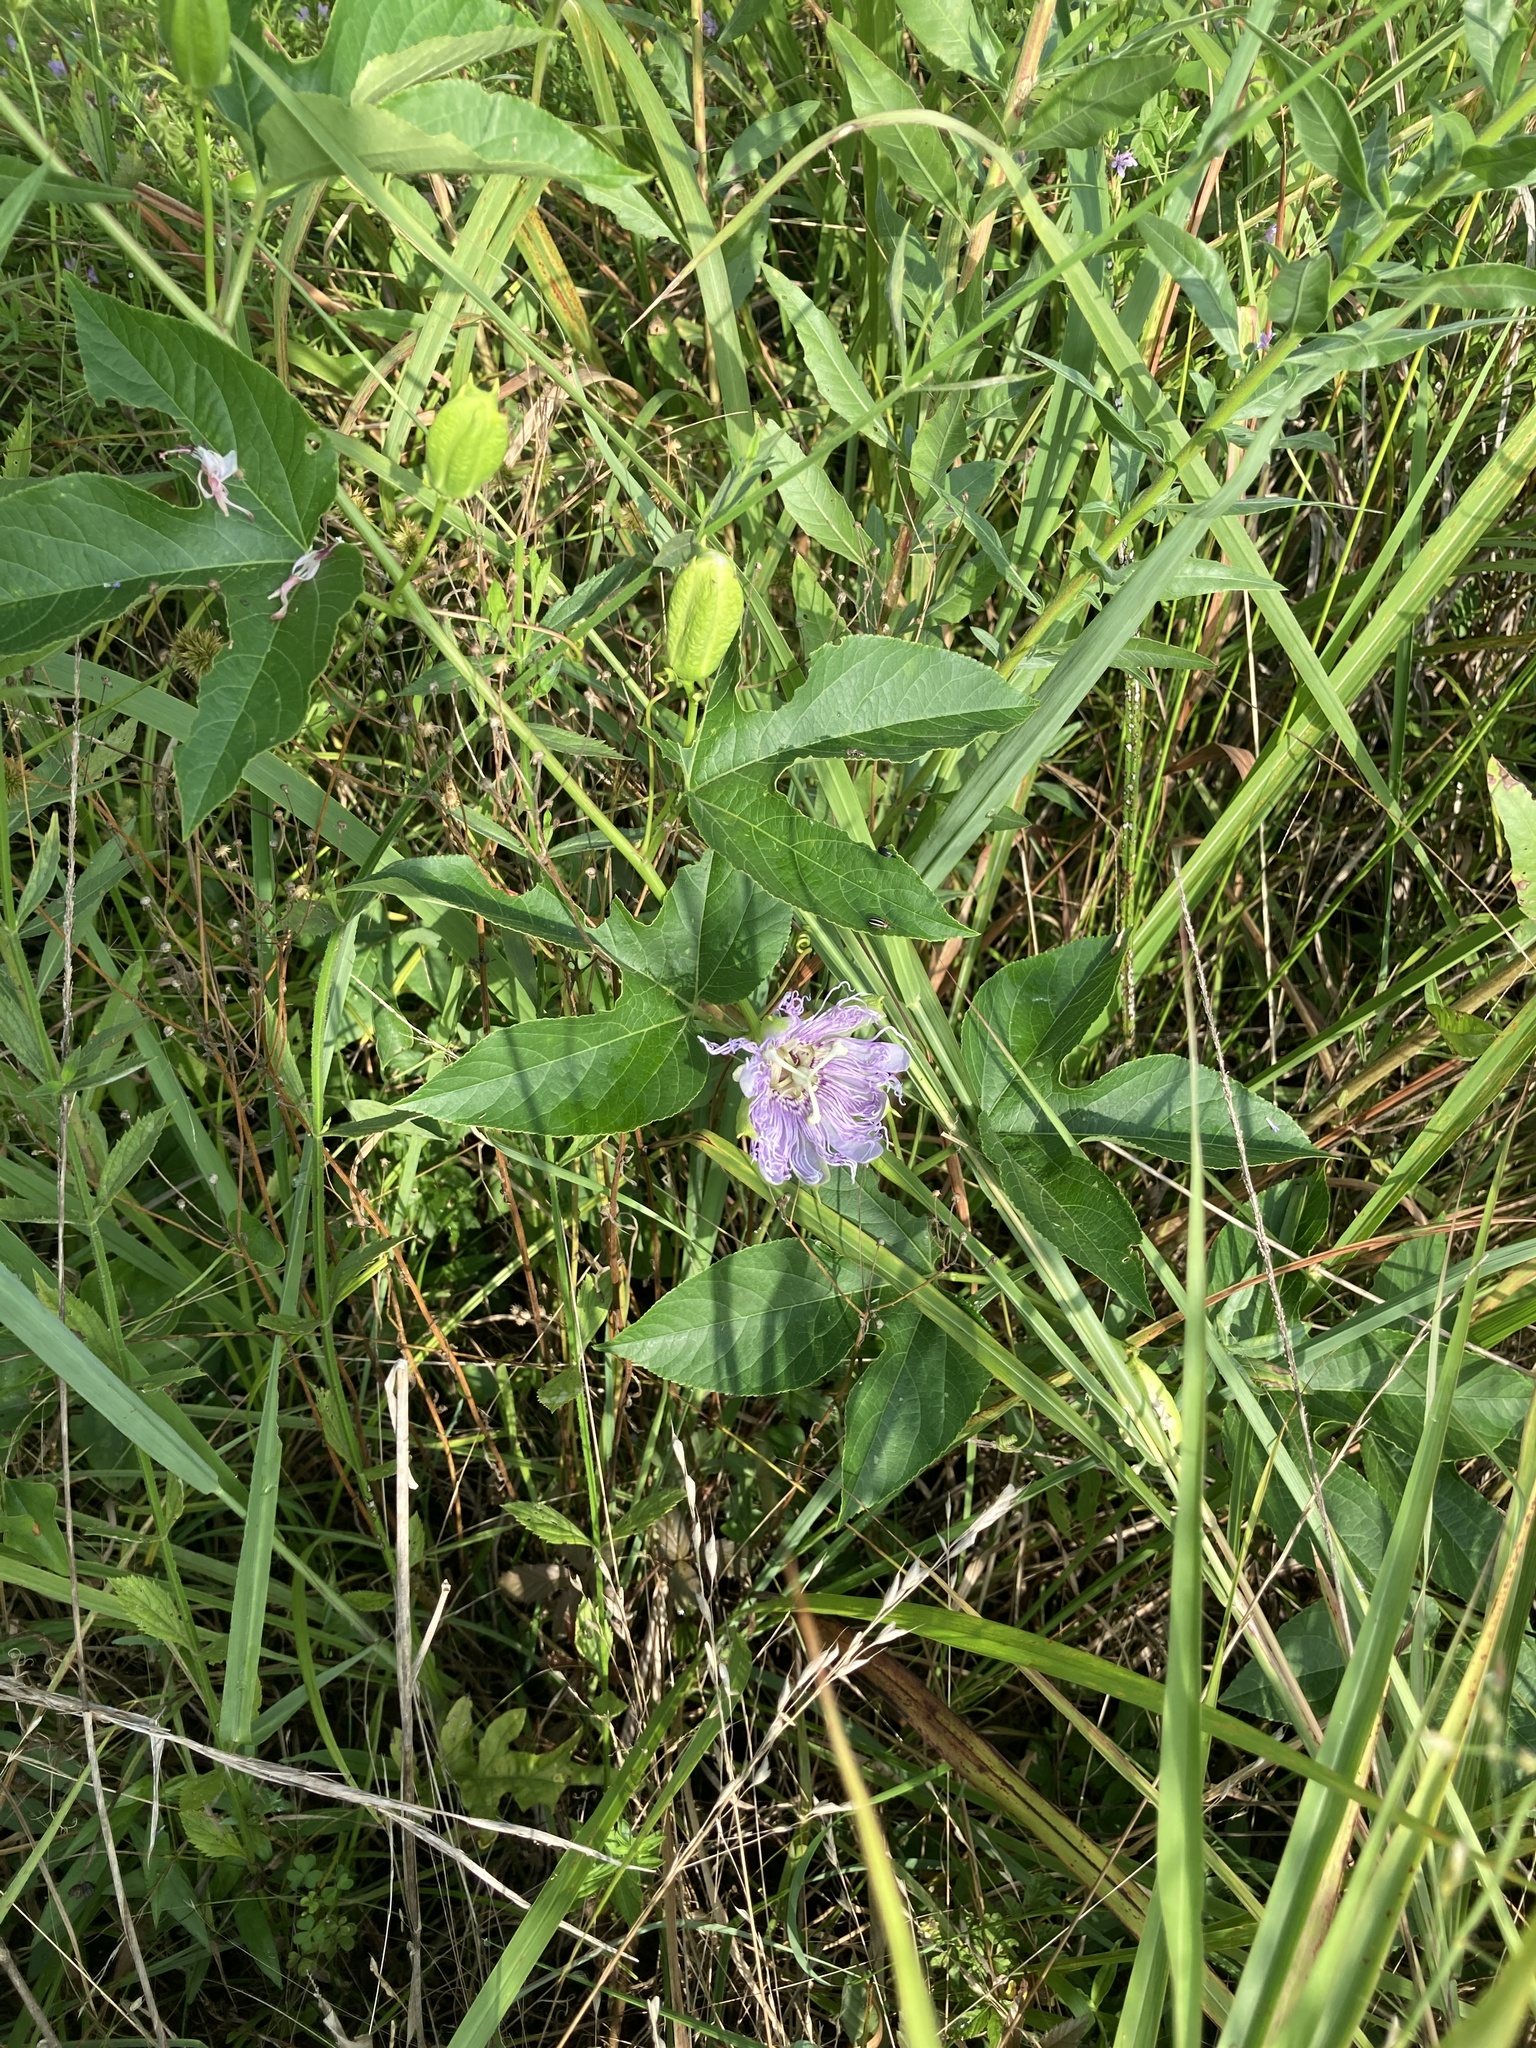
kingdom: Plantae
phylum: Tracheophyta
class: Magnoliopsida
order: Malpighiales
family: Passifloraceae
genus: Passiflora
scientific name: Passiflora incarnata
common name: Apricot-vine
